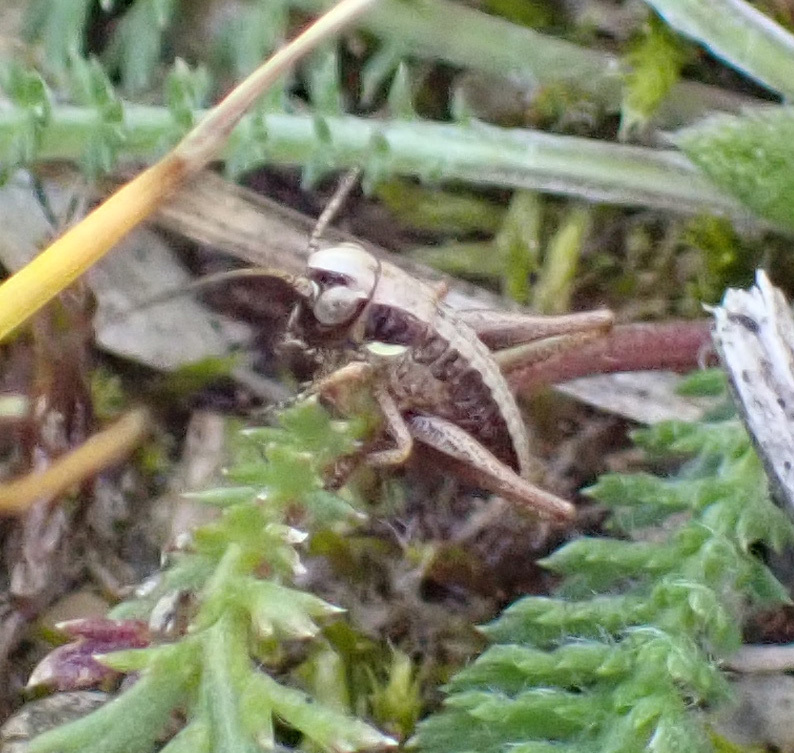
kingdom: Animalia
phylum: Arthropoda
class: Insecta
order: Orthoptera
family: Tettigoniidae
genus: Platycleis
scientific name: Platycleis grisea
